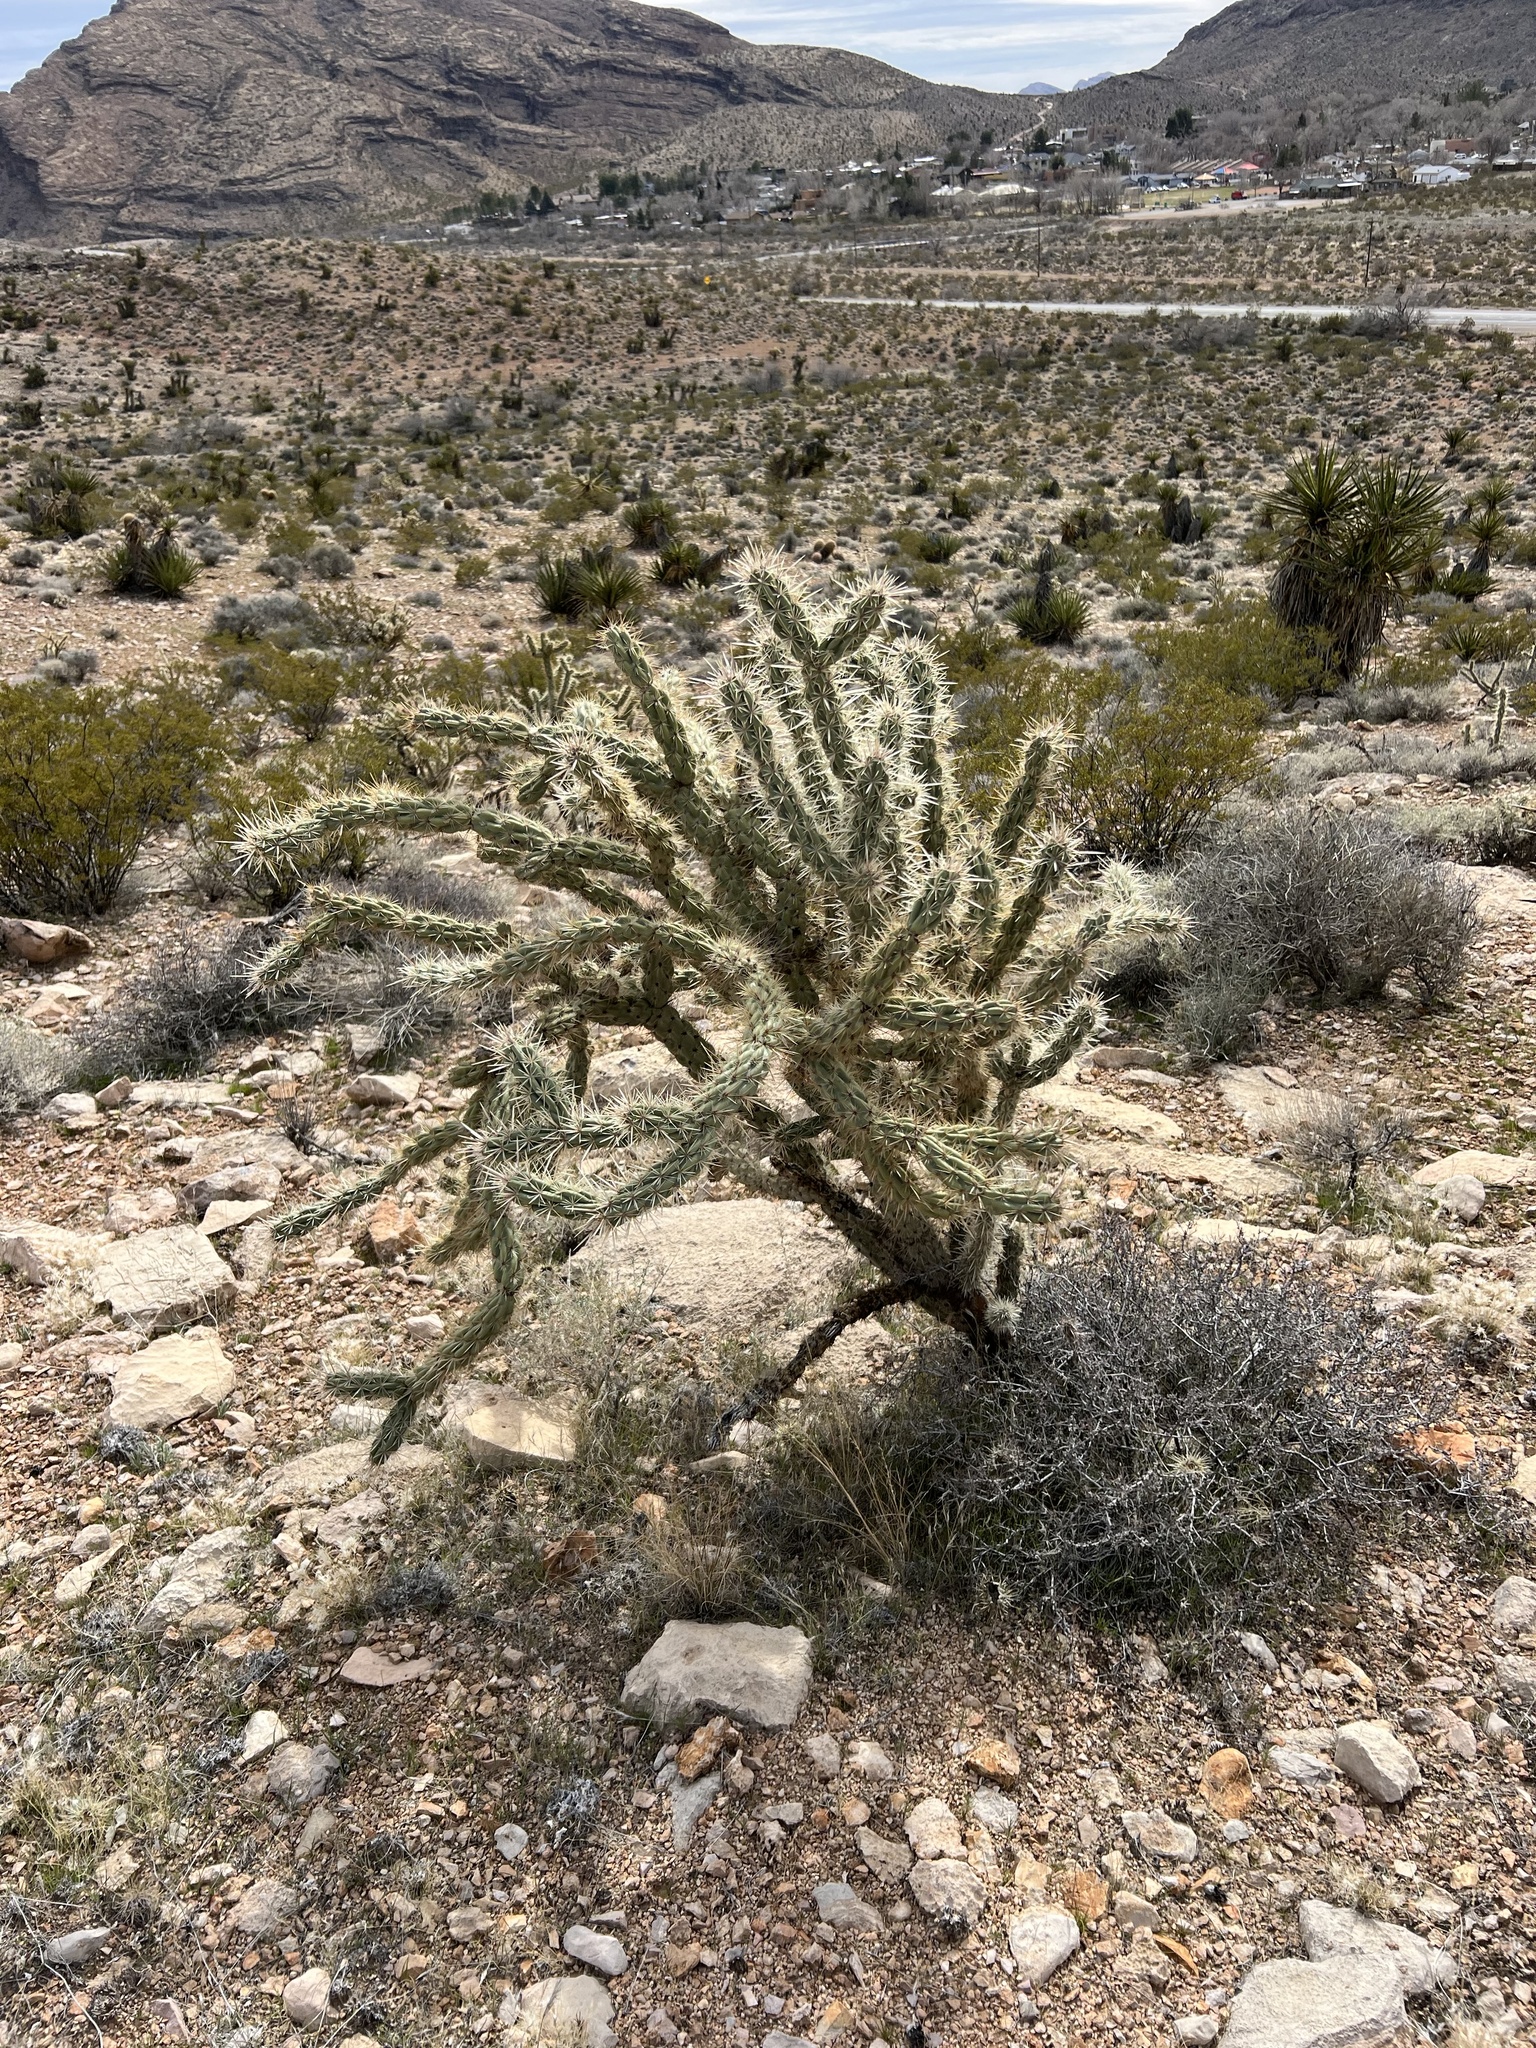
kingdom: Plantae
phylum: Tracheophyta
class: Magnoliopsida
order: Caryophyllales
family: Cactaceae
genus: Cylindropuntia
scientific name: Cylindropuntia acanthocarpa
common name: Buckhorn cholla
